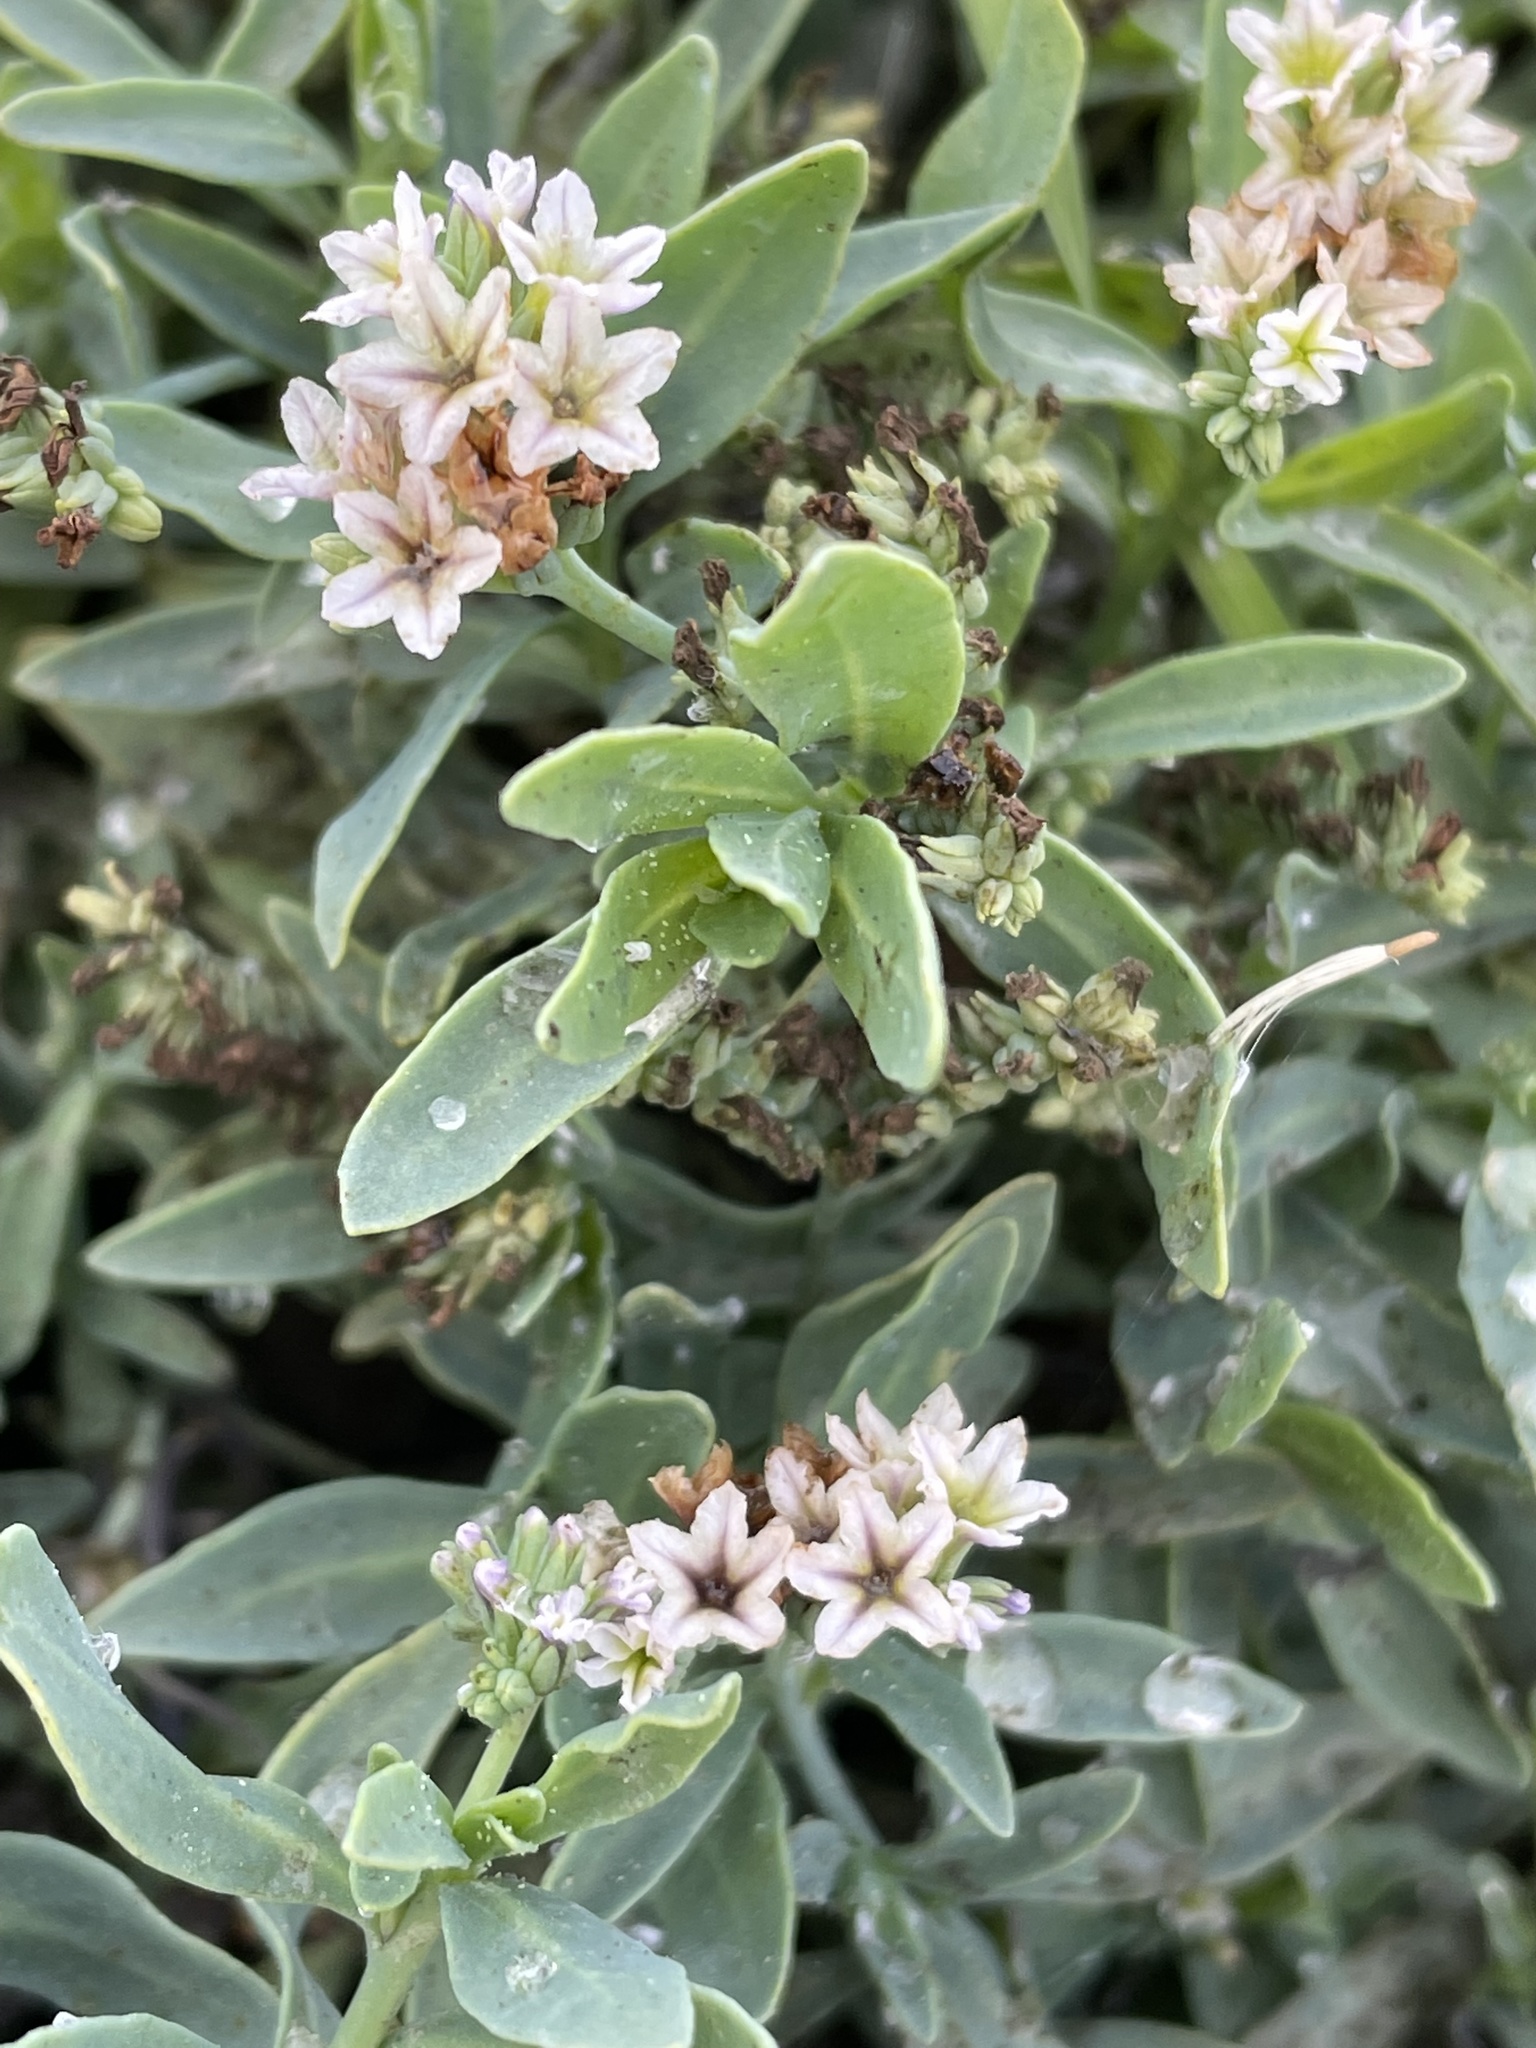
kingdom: Plantae
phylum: Tracheophyta
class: Magnoliopsida
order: Boraginales
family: Heliotropiaceae
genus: Heliotropium
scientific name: Heliotropium curassavicum
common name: Seaside heliotrope
